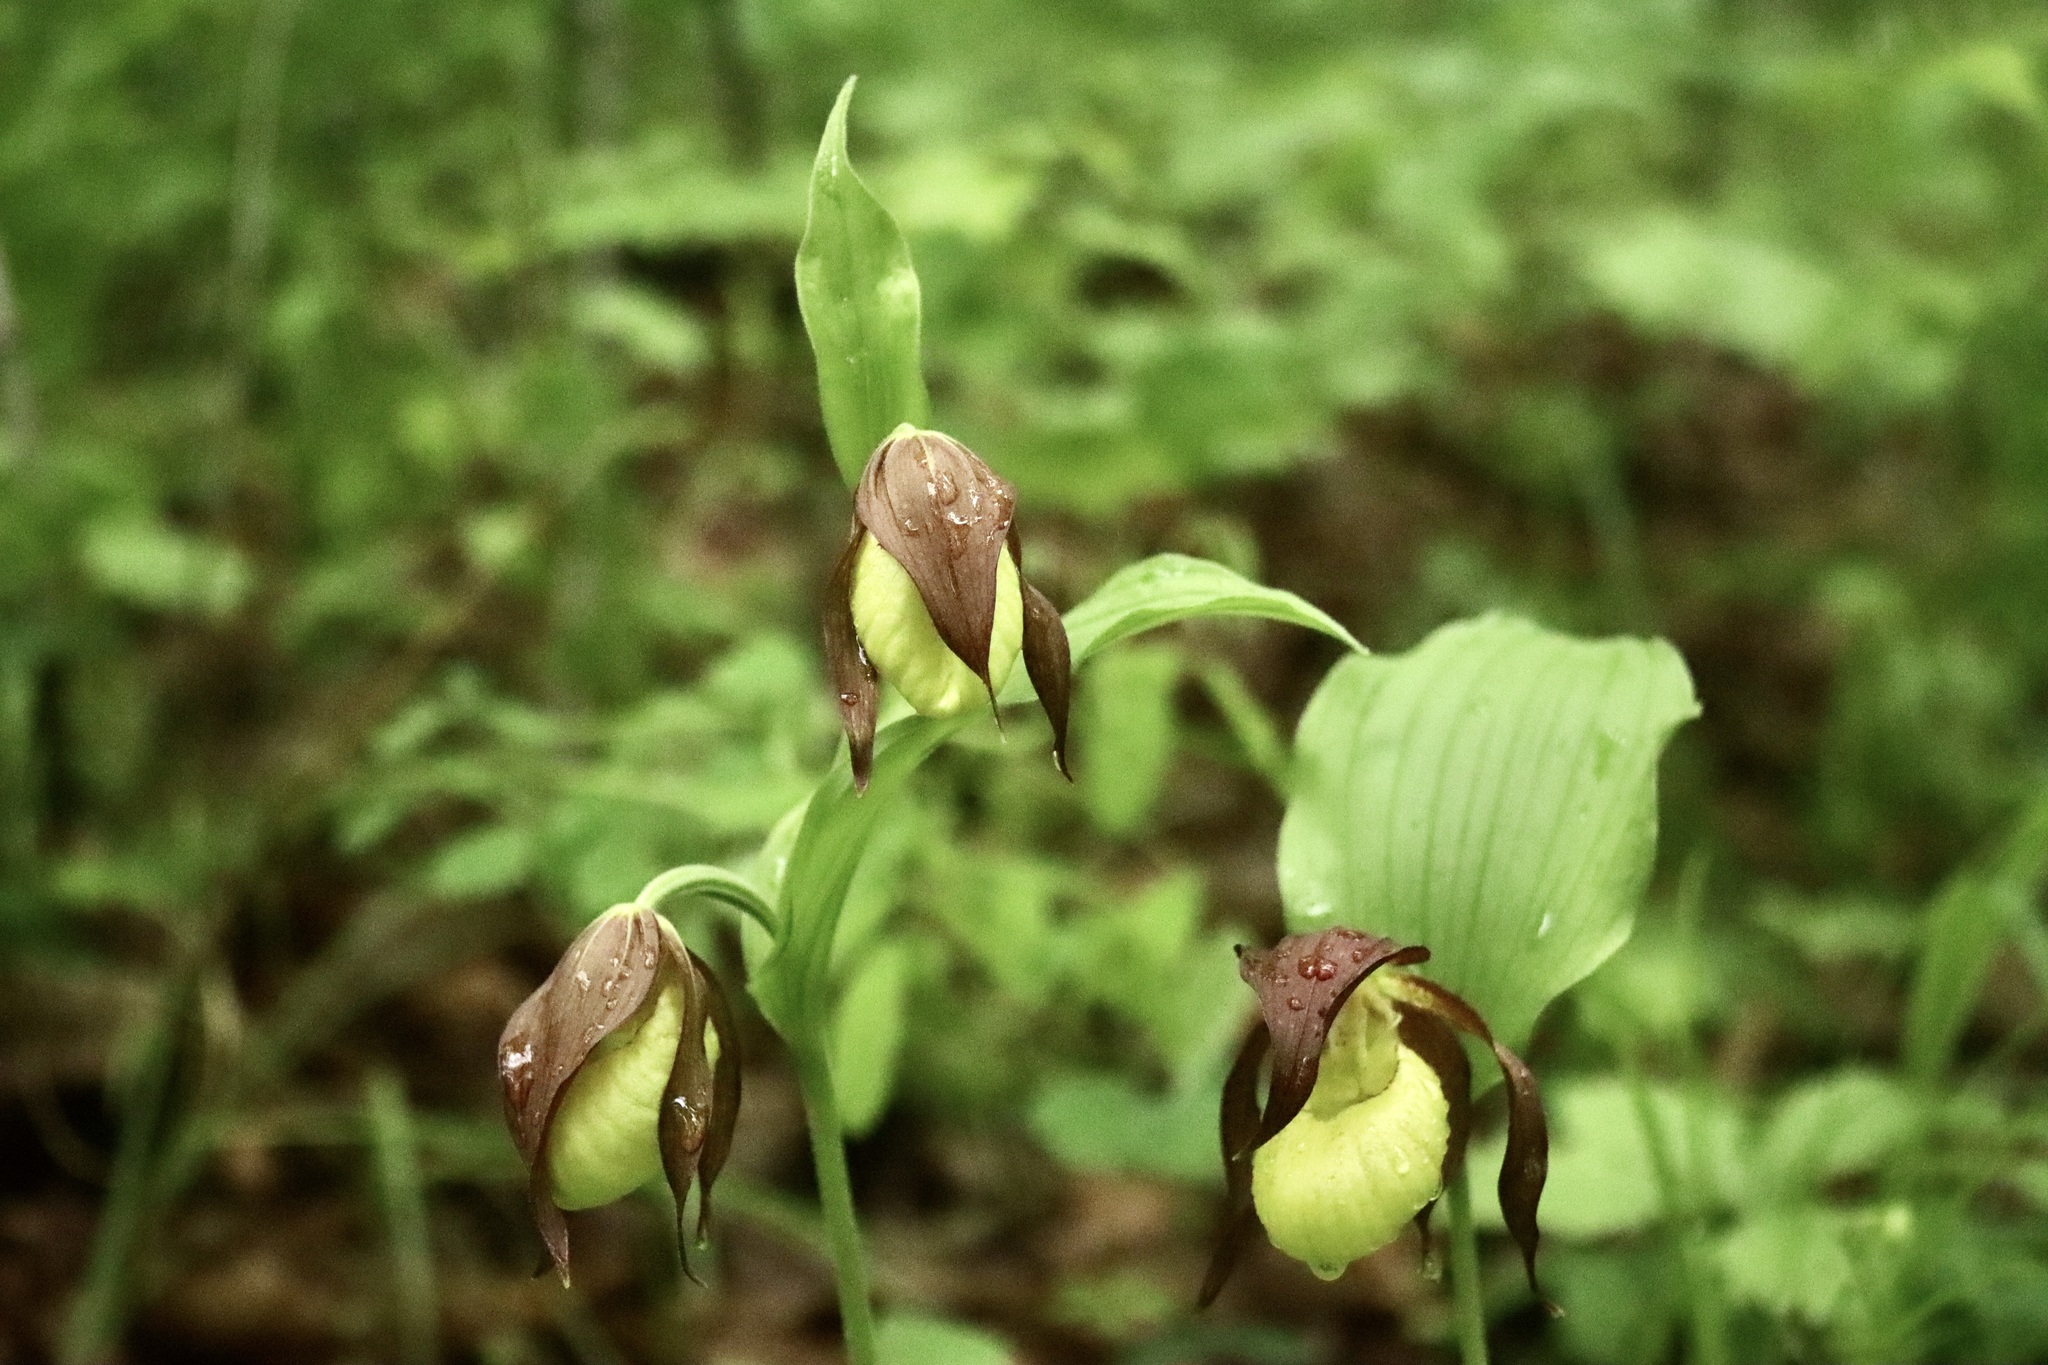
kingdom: Plantae
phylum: Tracheophyta
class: Liliopsida
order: Asparagales
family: Orchidaceae
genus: Cypripedium
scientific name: Cypripedium calceolus
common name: Lady's-slipper
